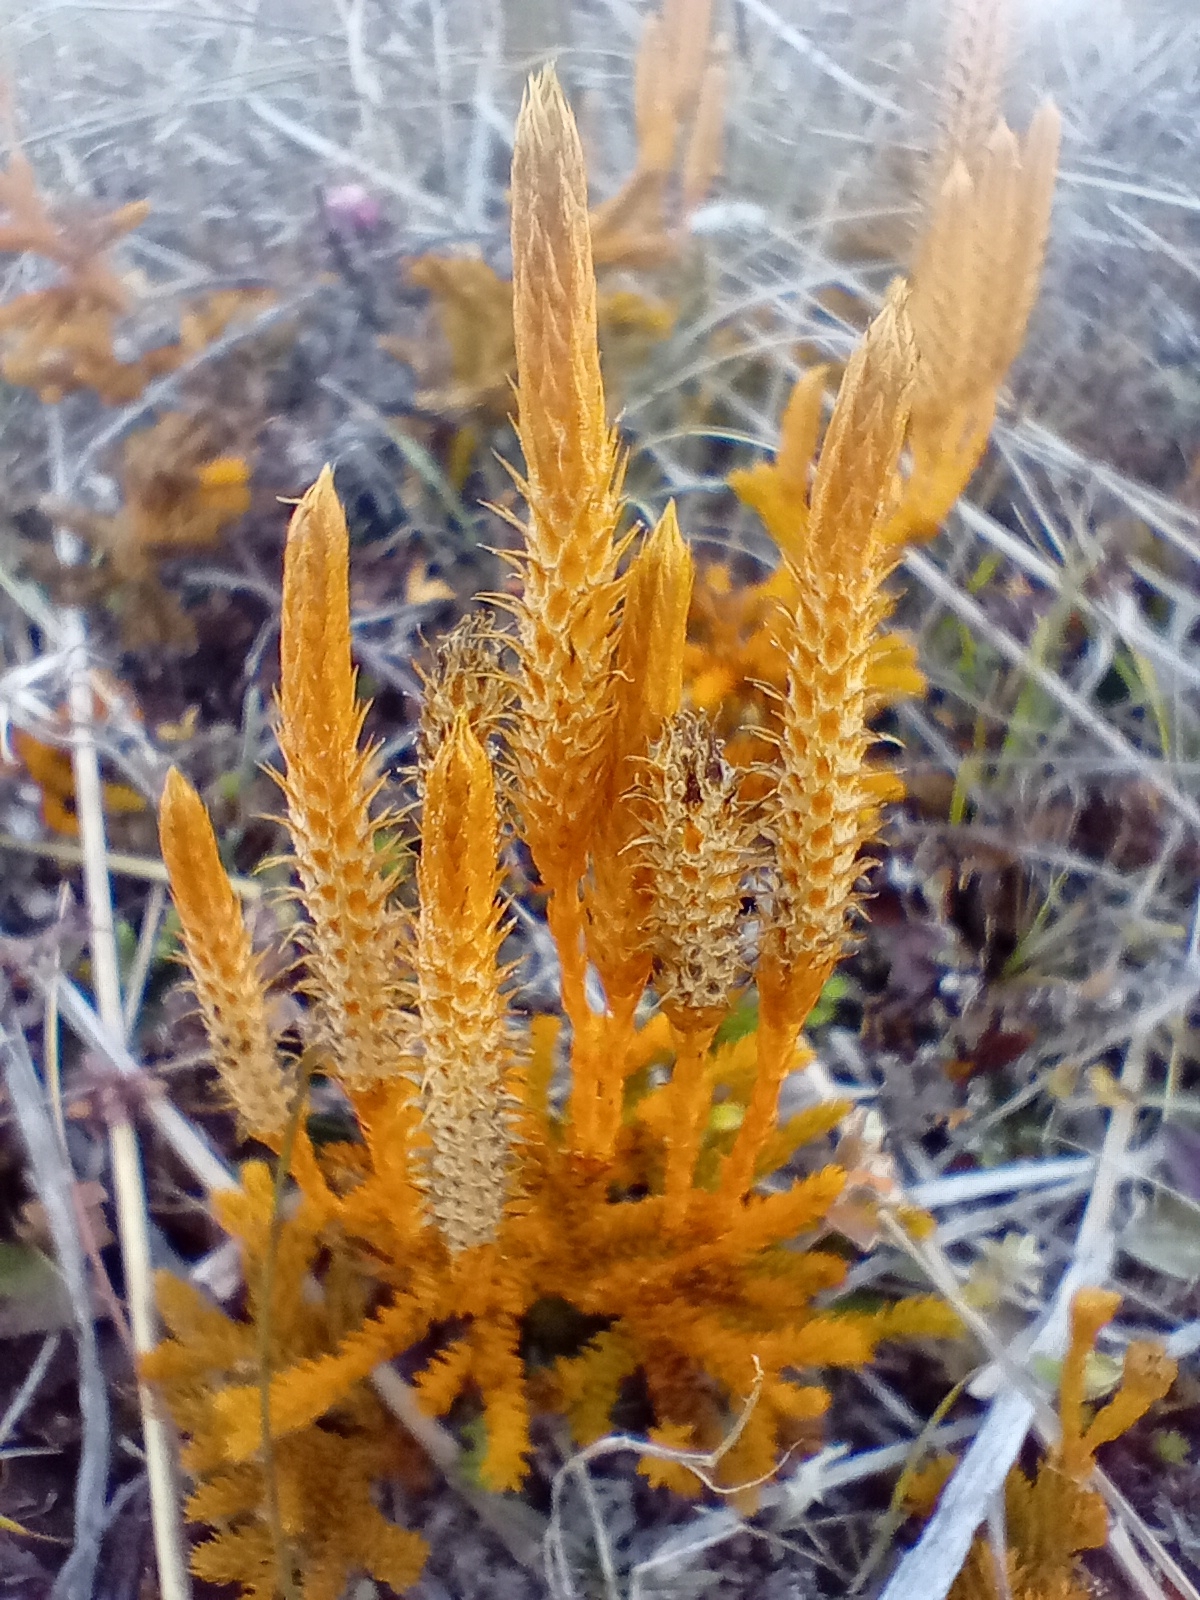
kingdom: Plantae
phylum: Tracheophyta
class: Lycopodiopsida
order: Lycopodiales
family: Lycopodiaceae
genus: Austrolycopodium
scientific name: Austrolycopodium fastigiatum
